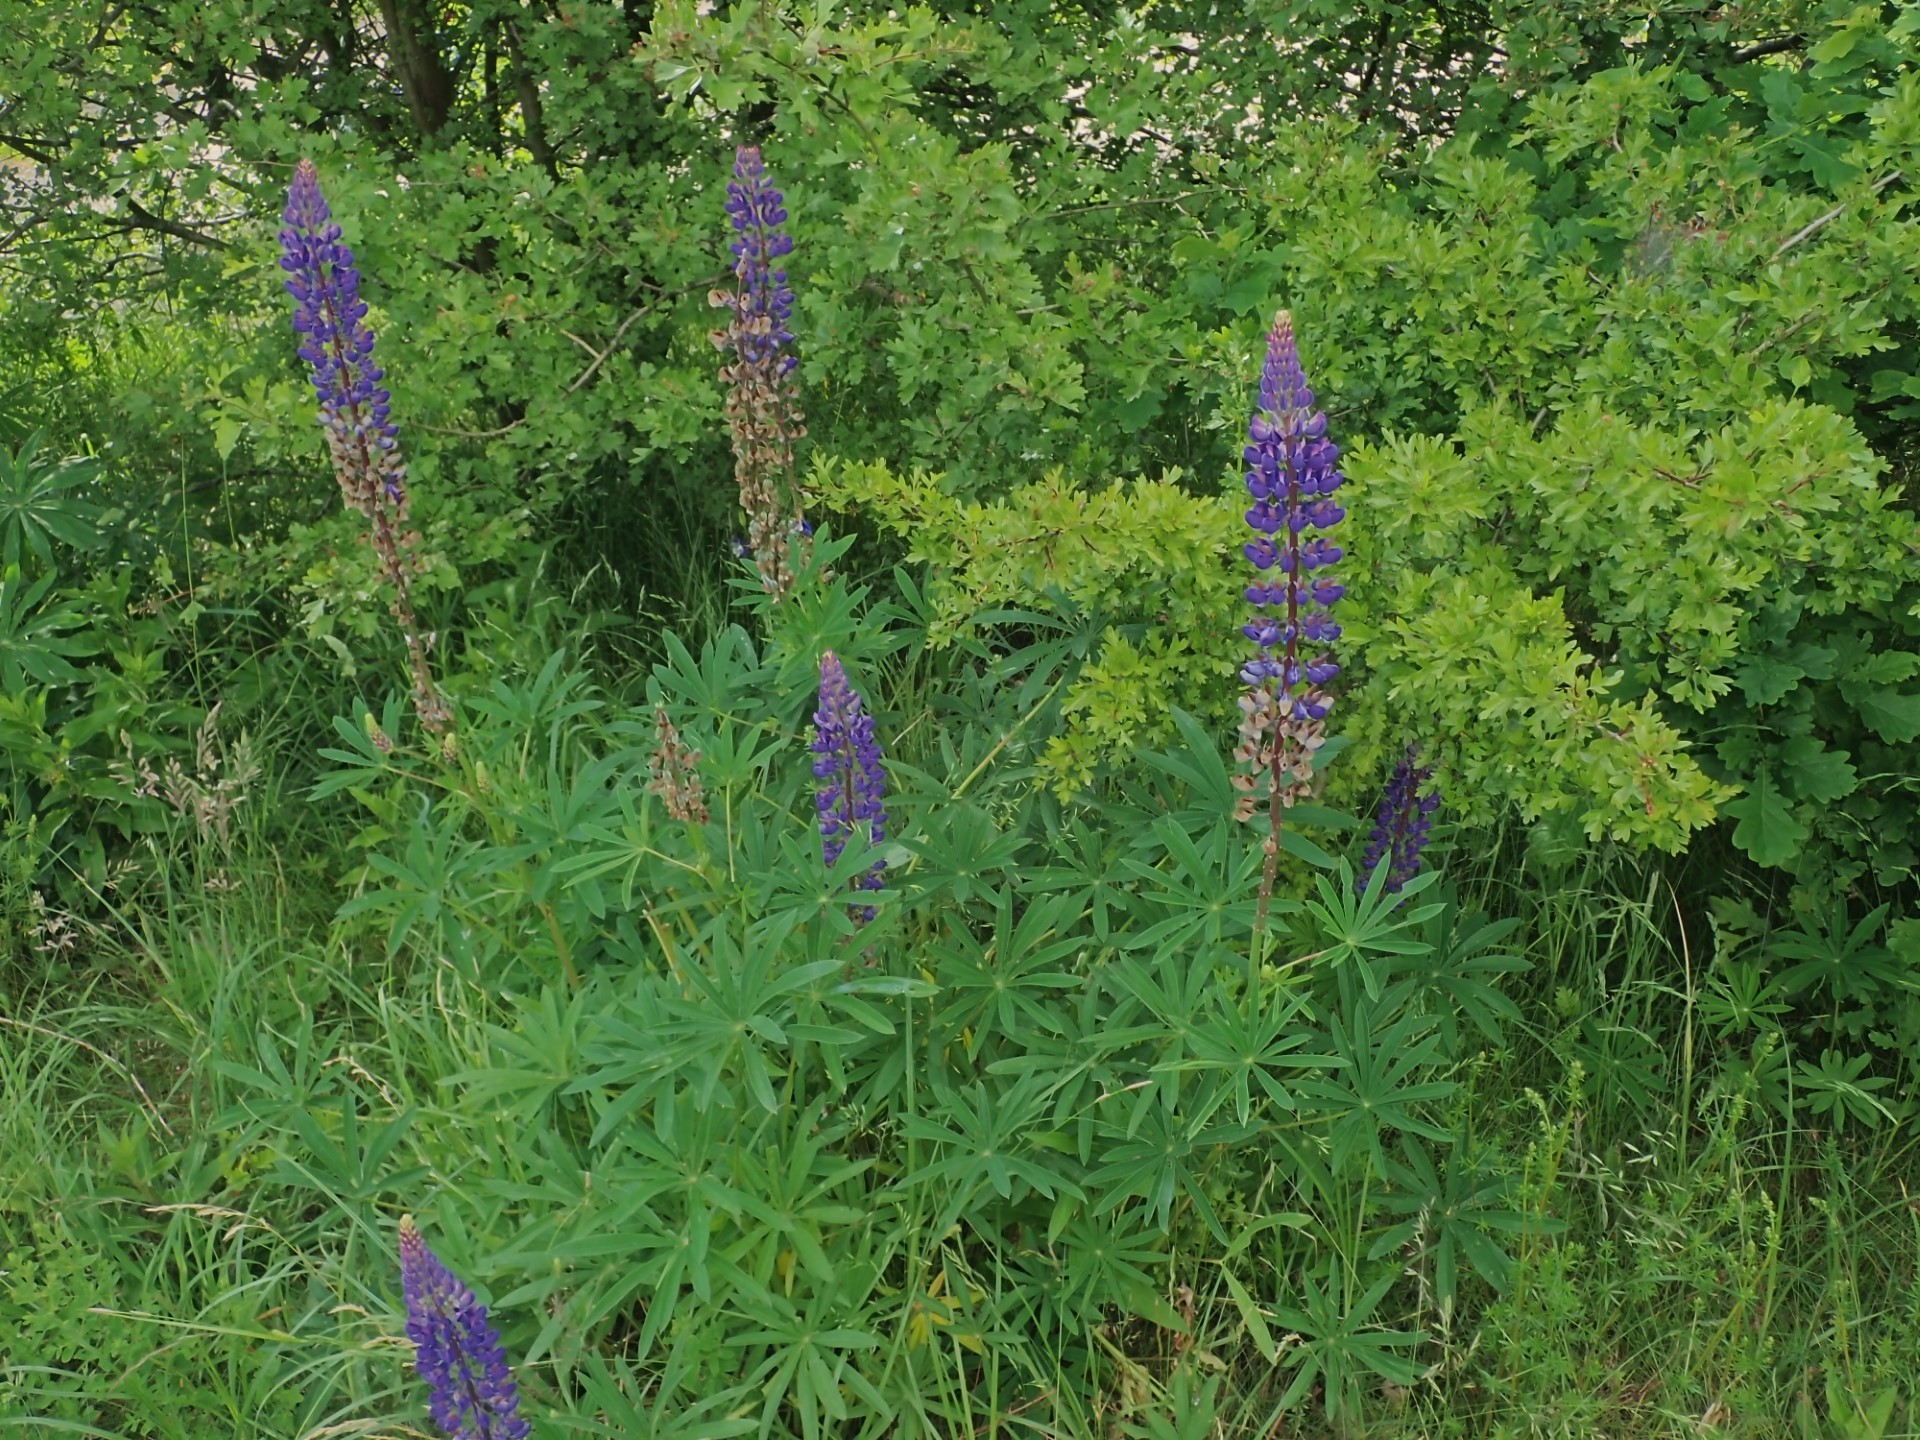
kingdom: Plantae
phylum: Tracheophyta
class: Magnoliopsida
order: Fabales
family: Fabaceae
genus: Lupinus
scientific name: Lupinus polyphyllus
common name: Garden lupin
